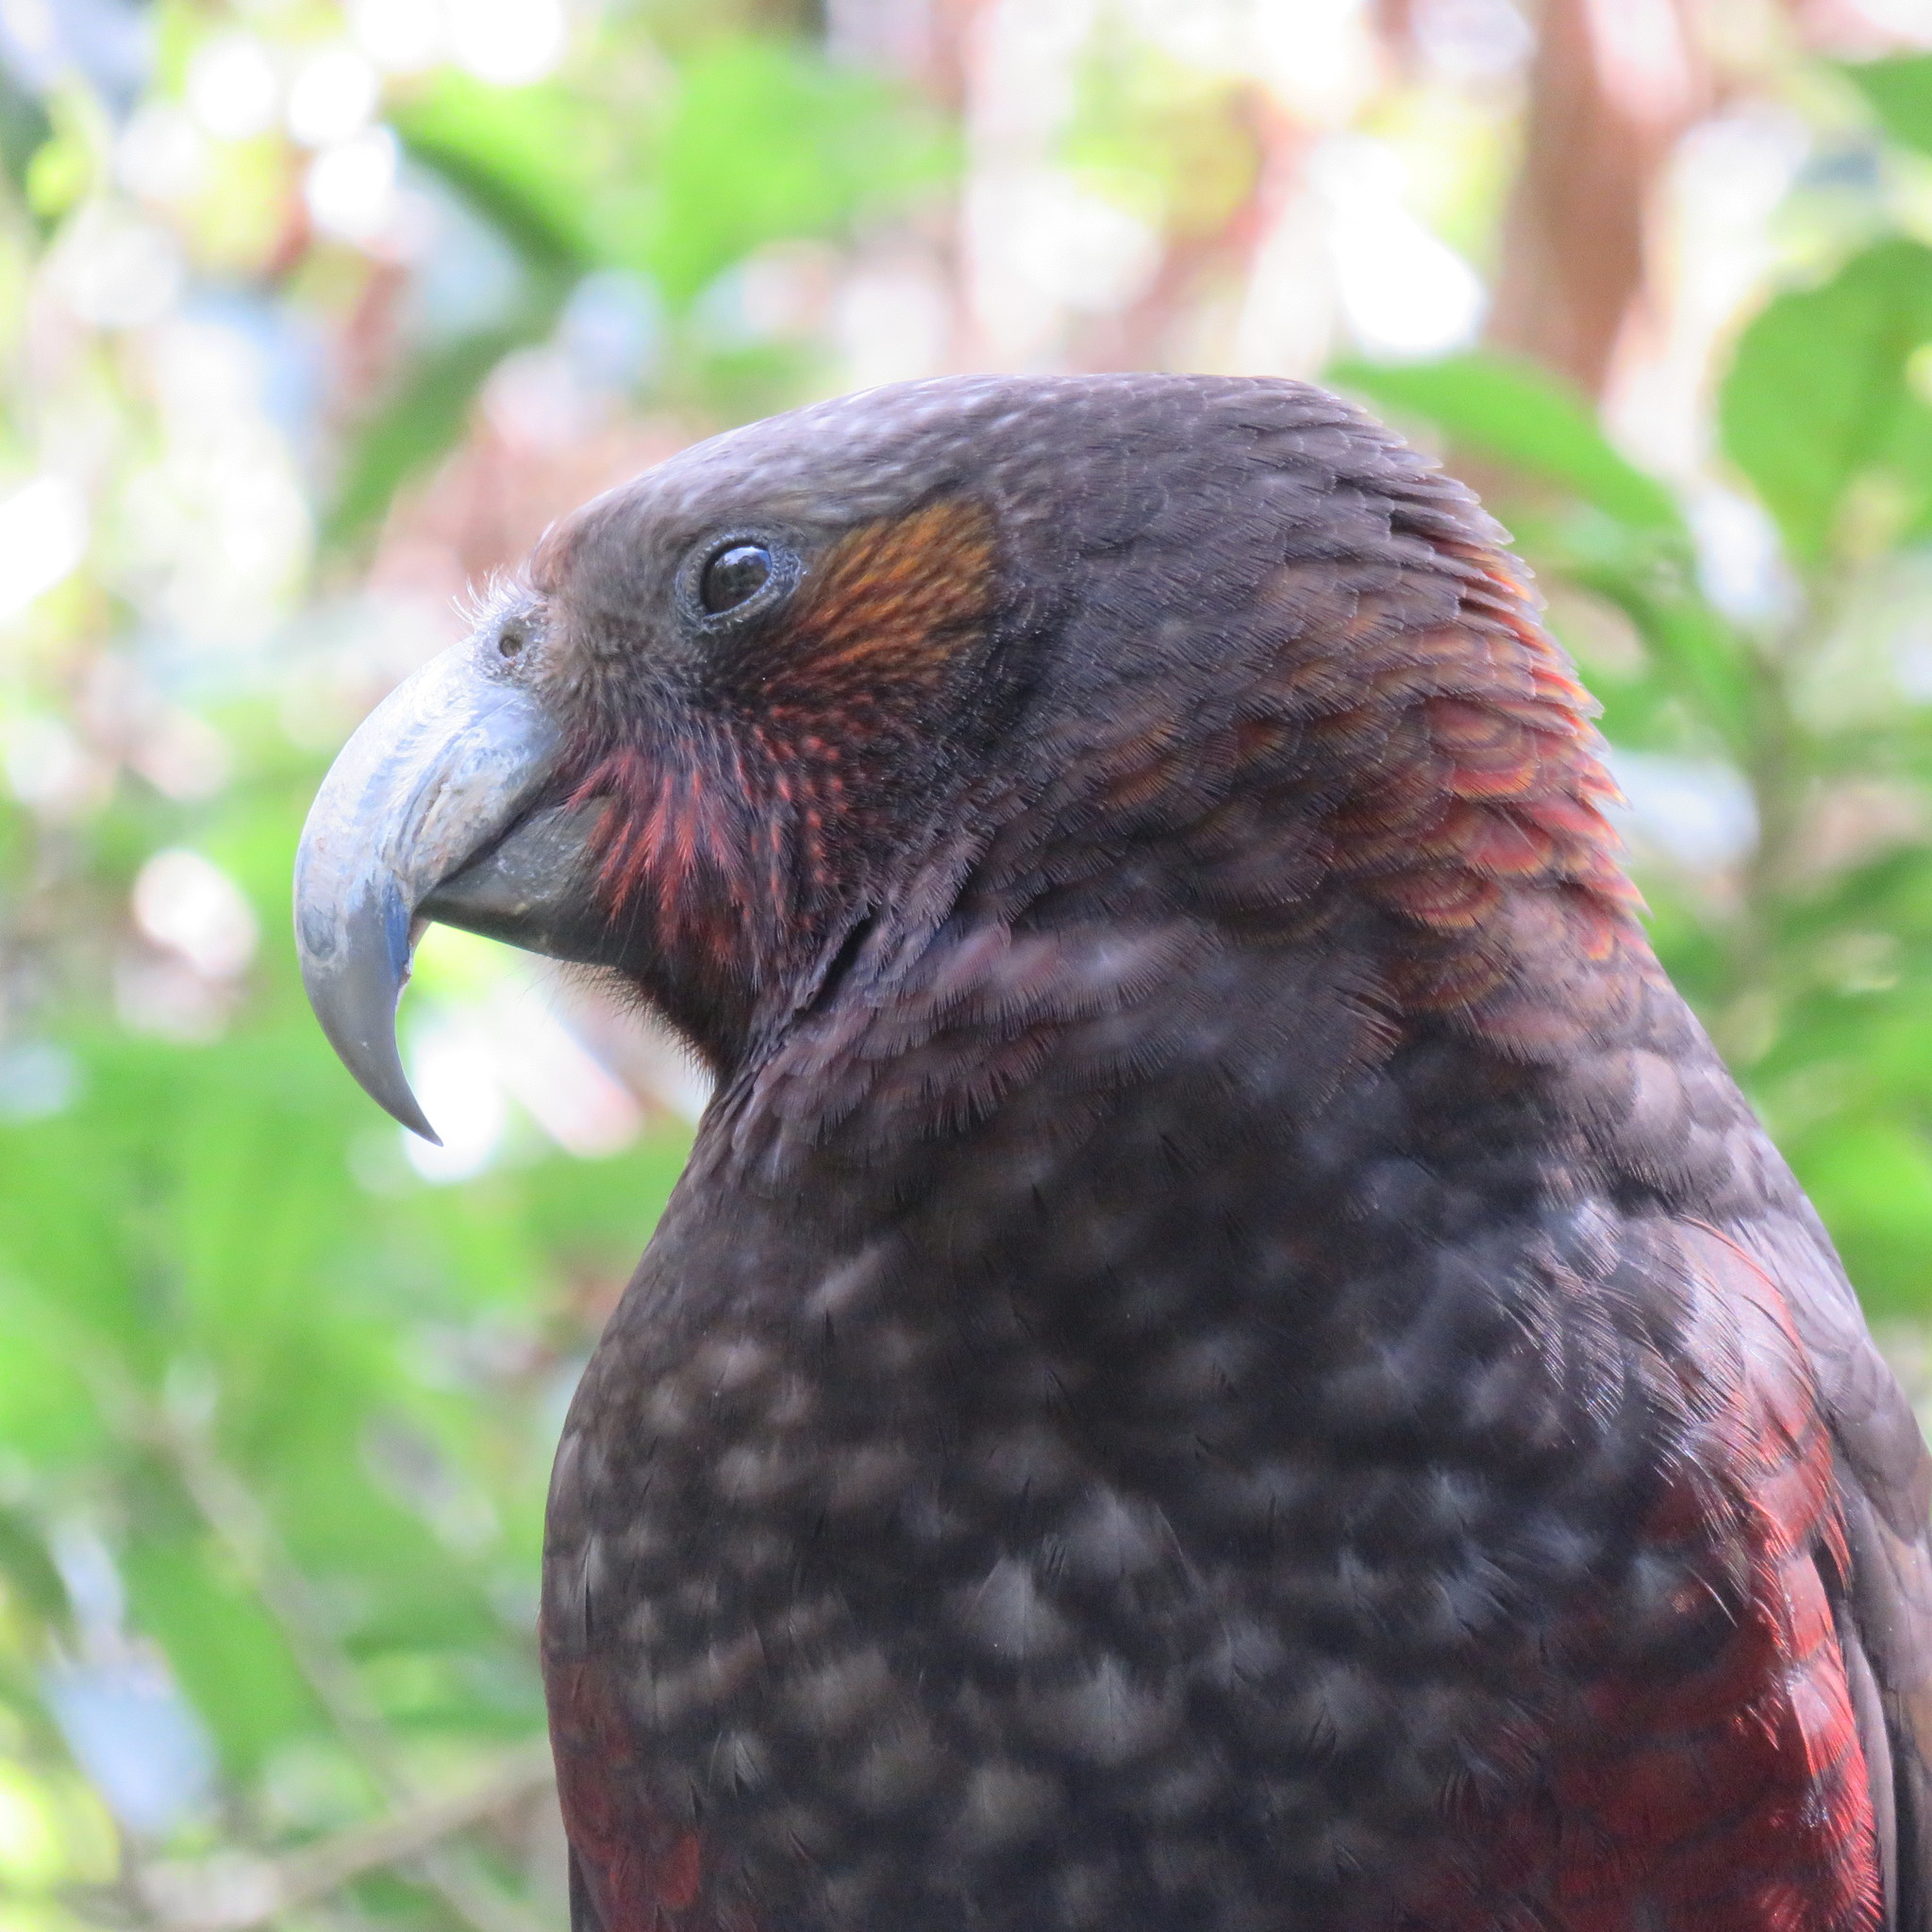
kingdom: Animalia
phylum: Chordata
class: Aves
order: Psittaciformes
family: Psittacidae
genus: Nestor
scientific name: Nestor meridionalis
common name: New zealand kaka
